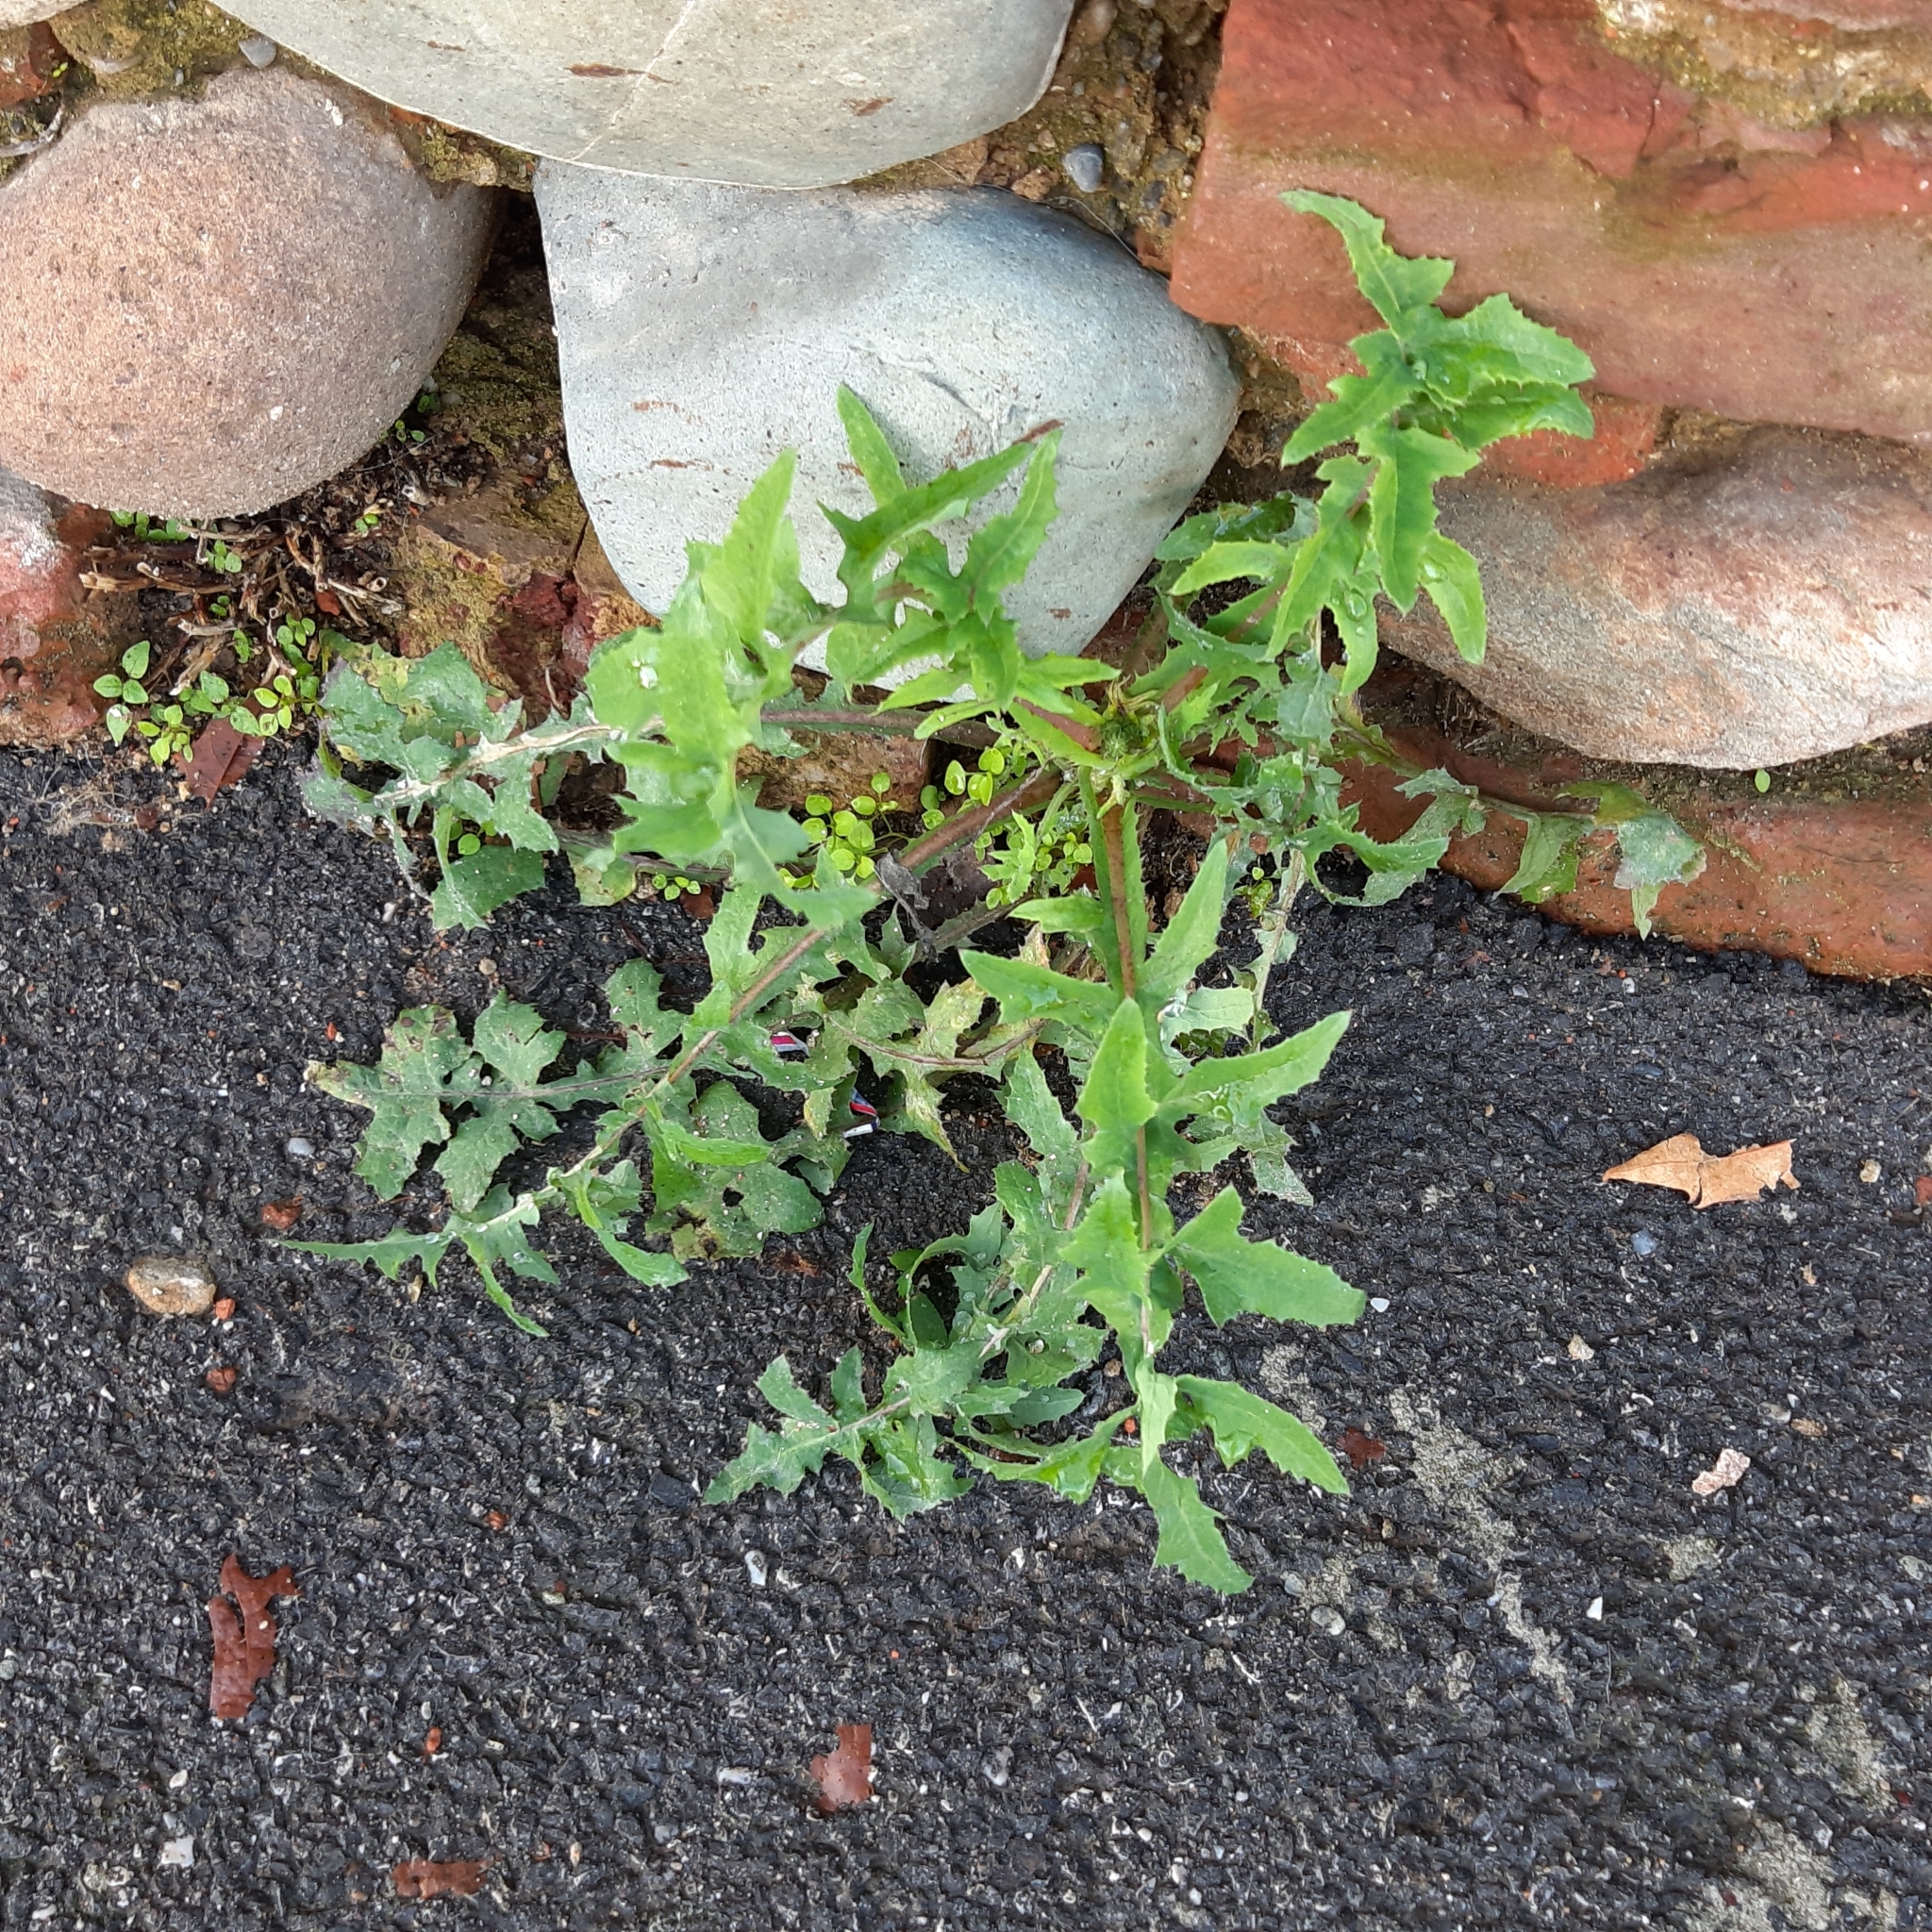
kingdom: Plantae
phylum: Tracheophyta
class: Magnoliopsida
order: Asterales
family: Asteraceae
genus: Sonchus
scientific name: Sonchus oleraceus
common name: Common sowthistle
